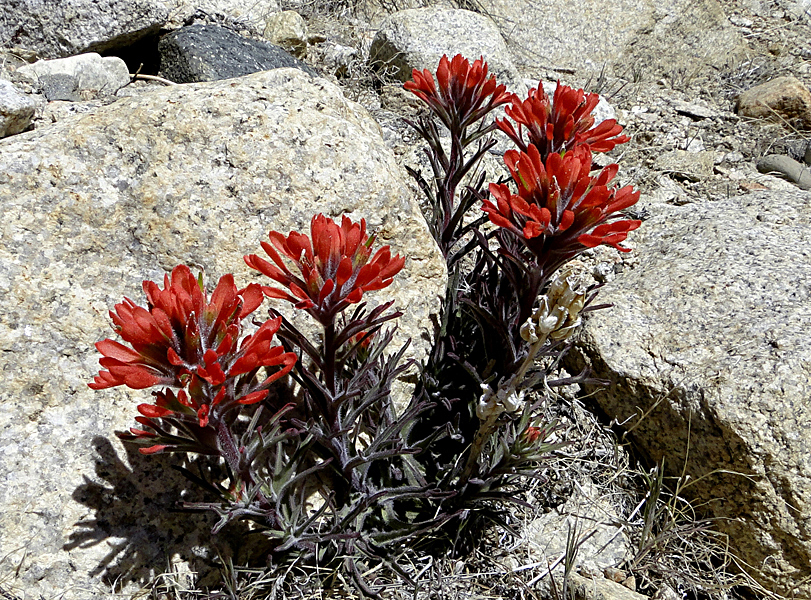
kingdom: Plantae
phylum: Tracheophyta
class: Magnoliopsida
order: Lamiales
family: Orobanchaceae
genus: Castilleja
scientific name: Castilleja chromosa
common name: Desert paintbrush
